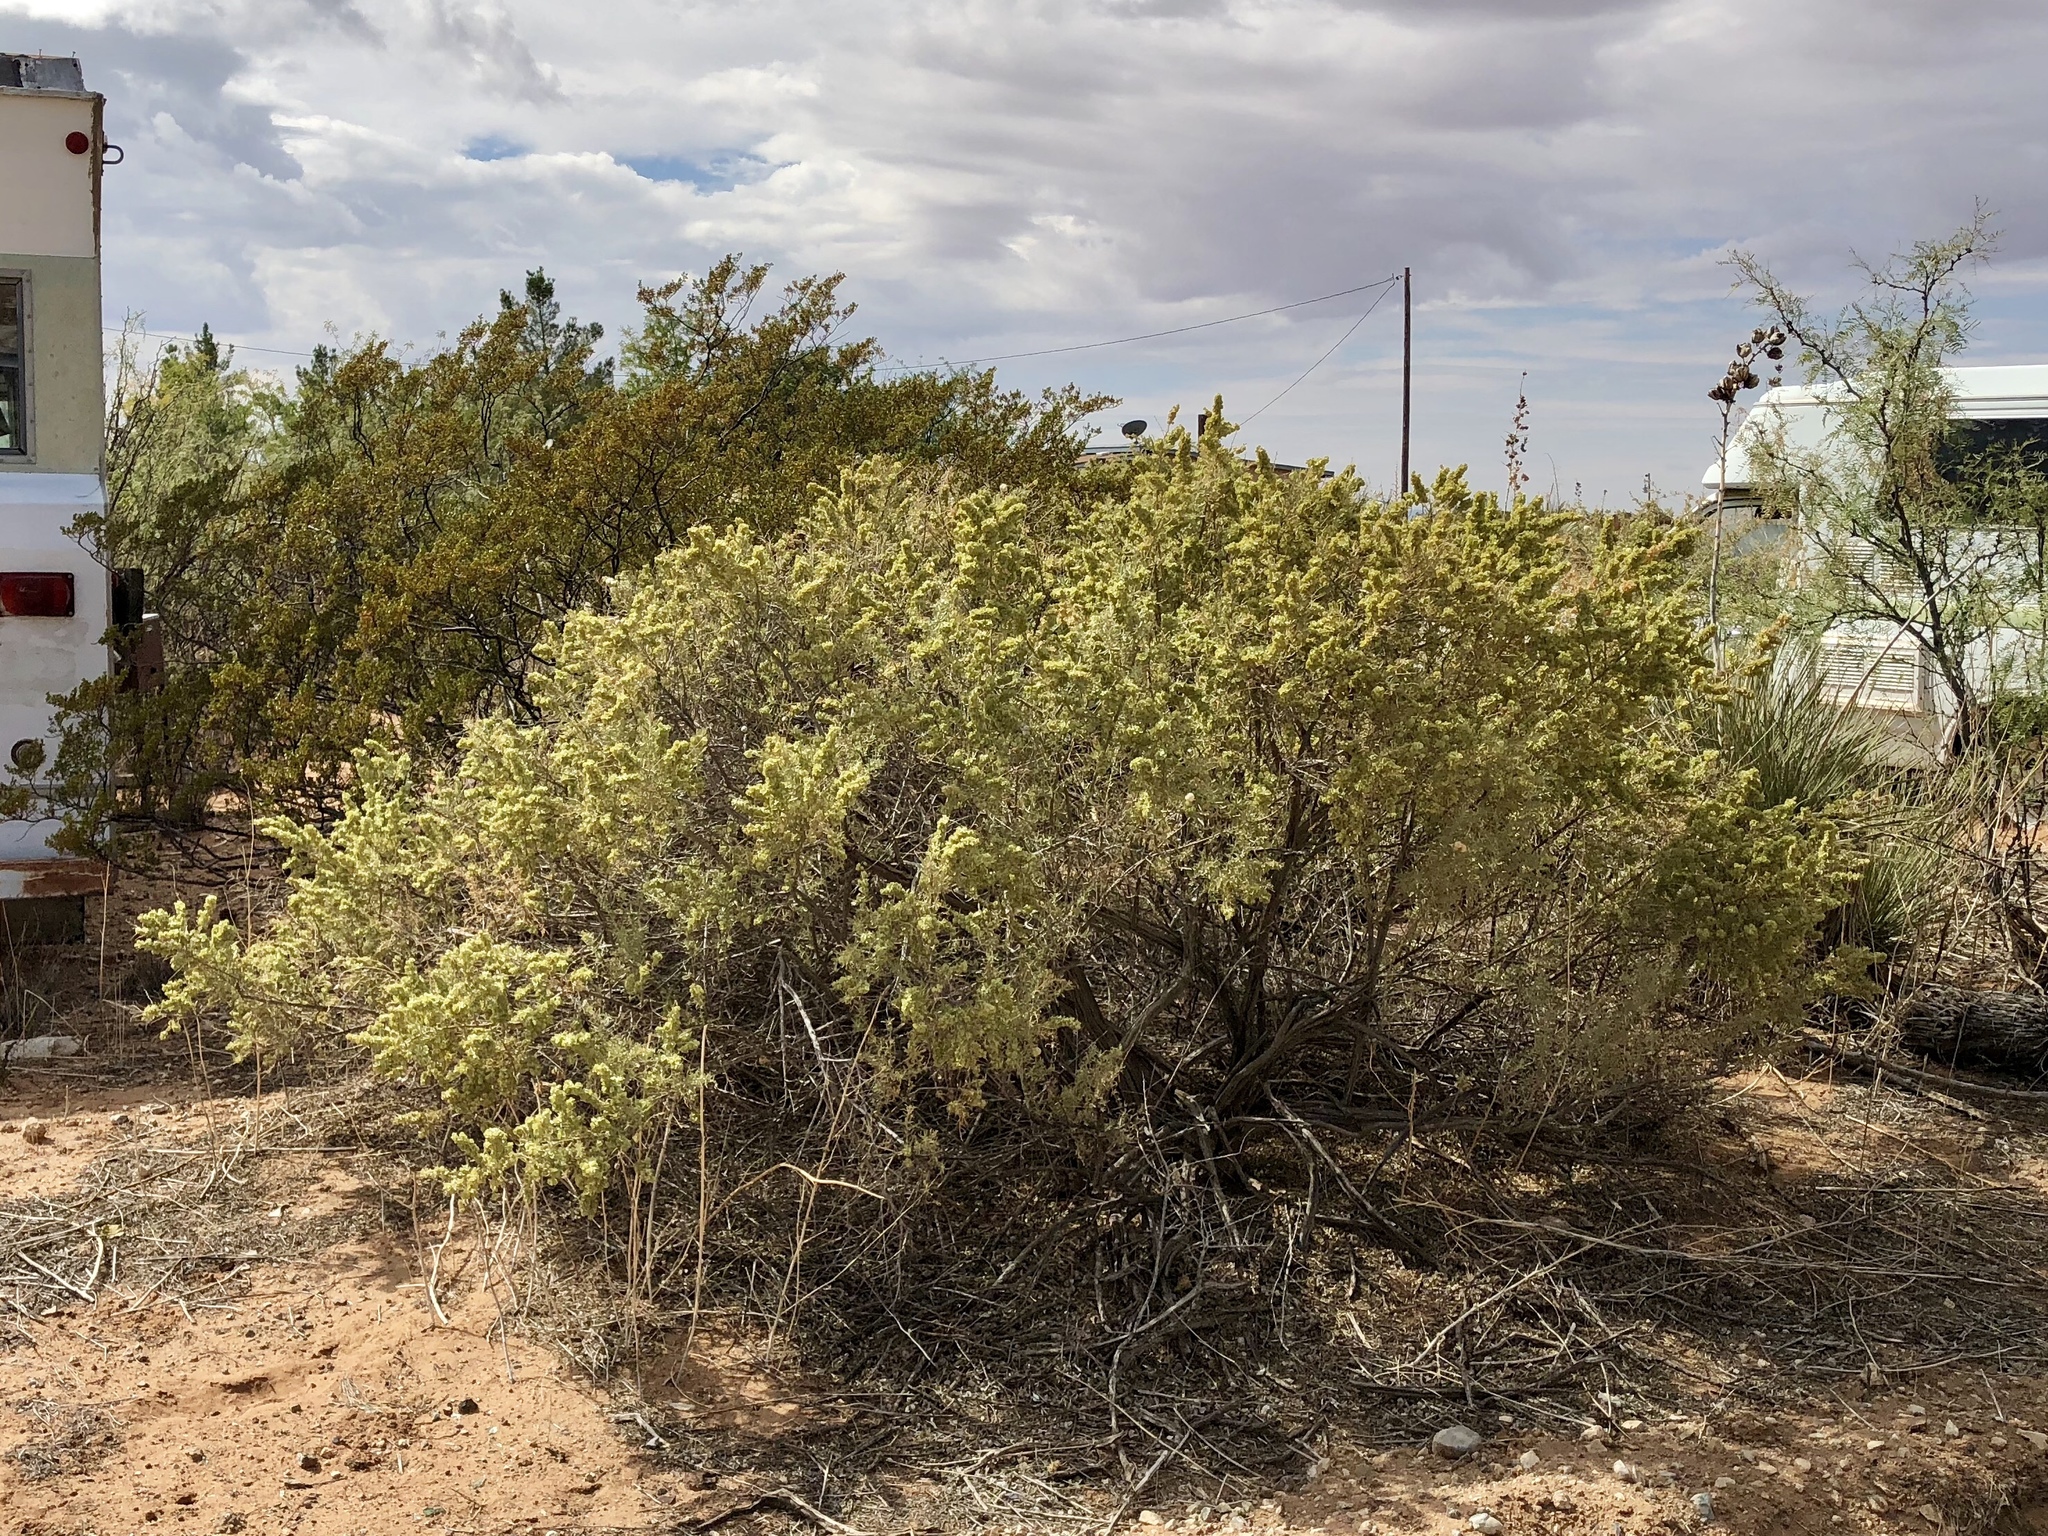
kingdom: Plantae
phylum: Tracheophyta
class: Magnoliopsida
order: Caryophyllales
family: Amaranthaceae
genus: Atriplex
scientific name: Atriplex canescens
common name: Four-wing saltbush
